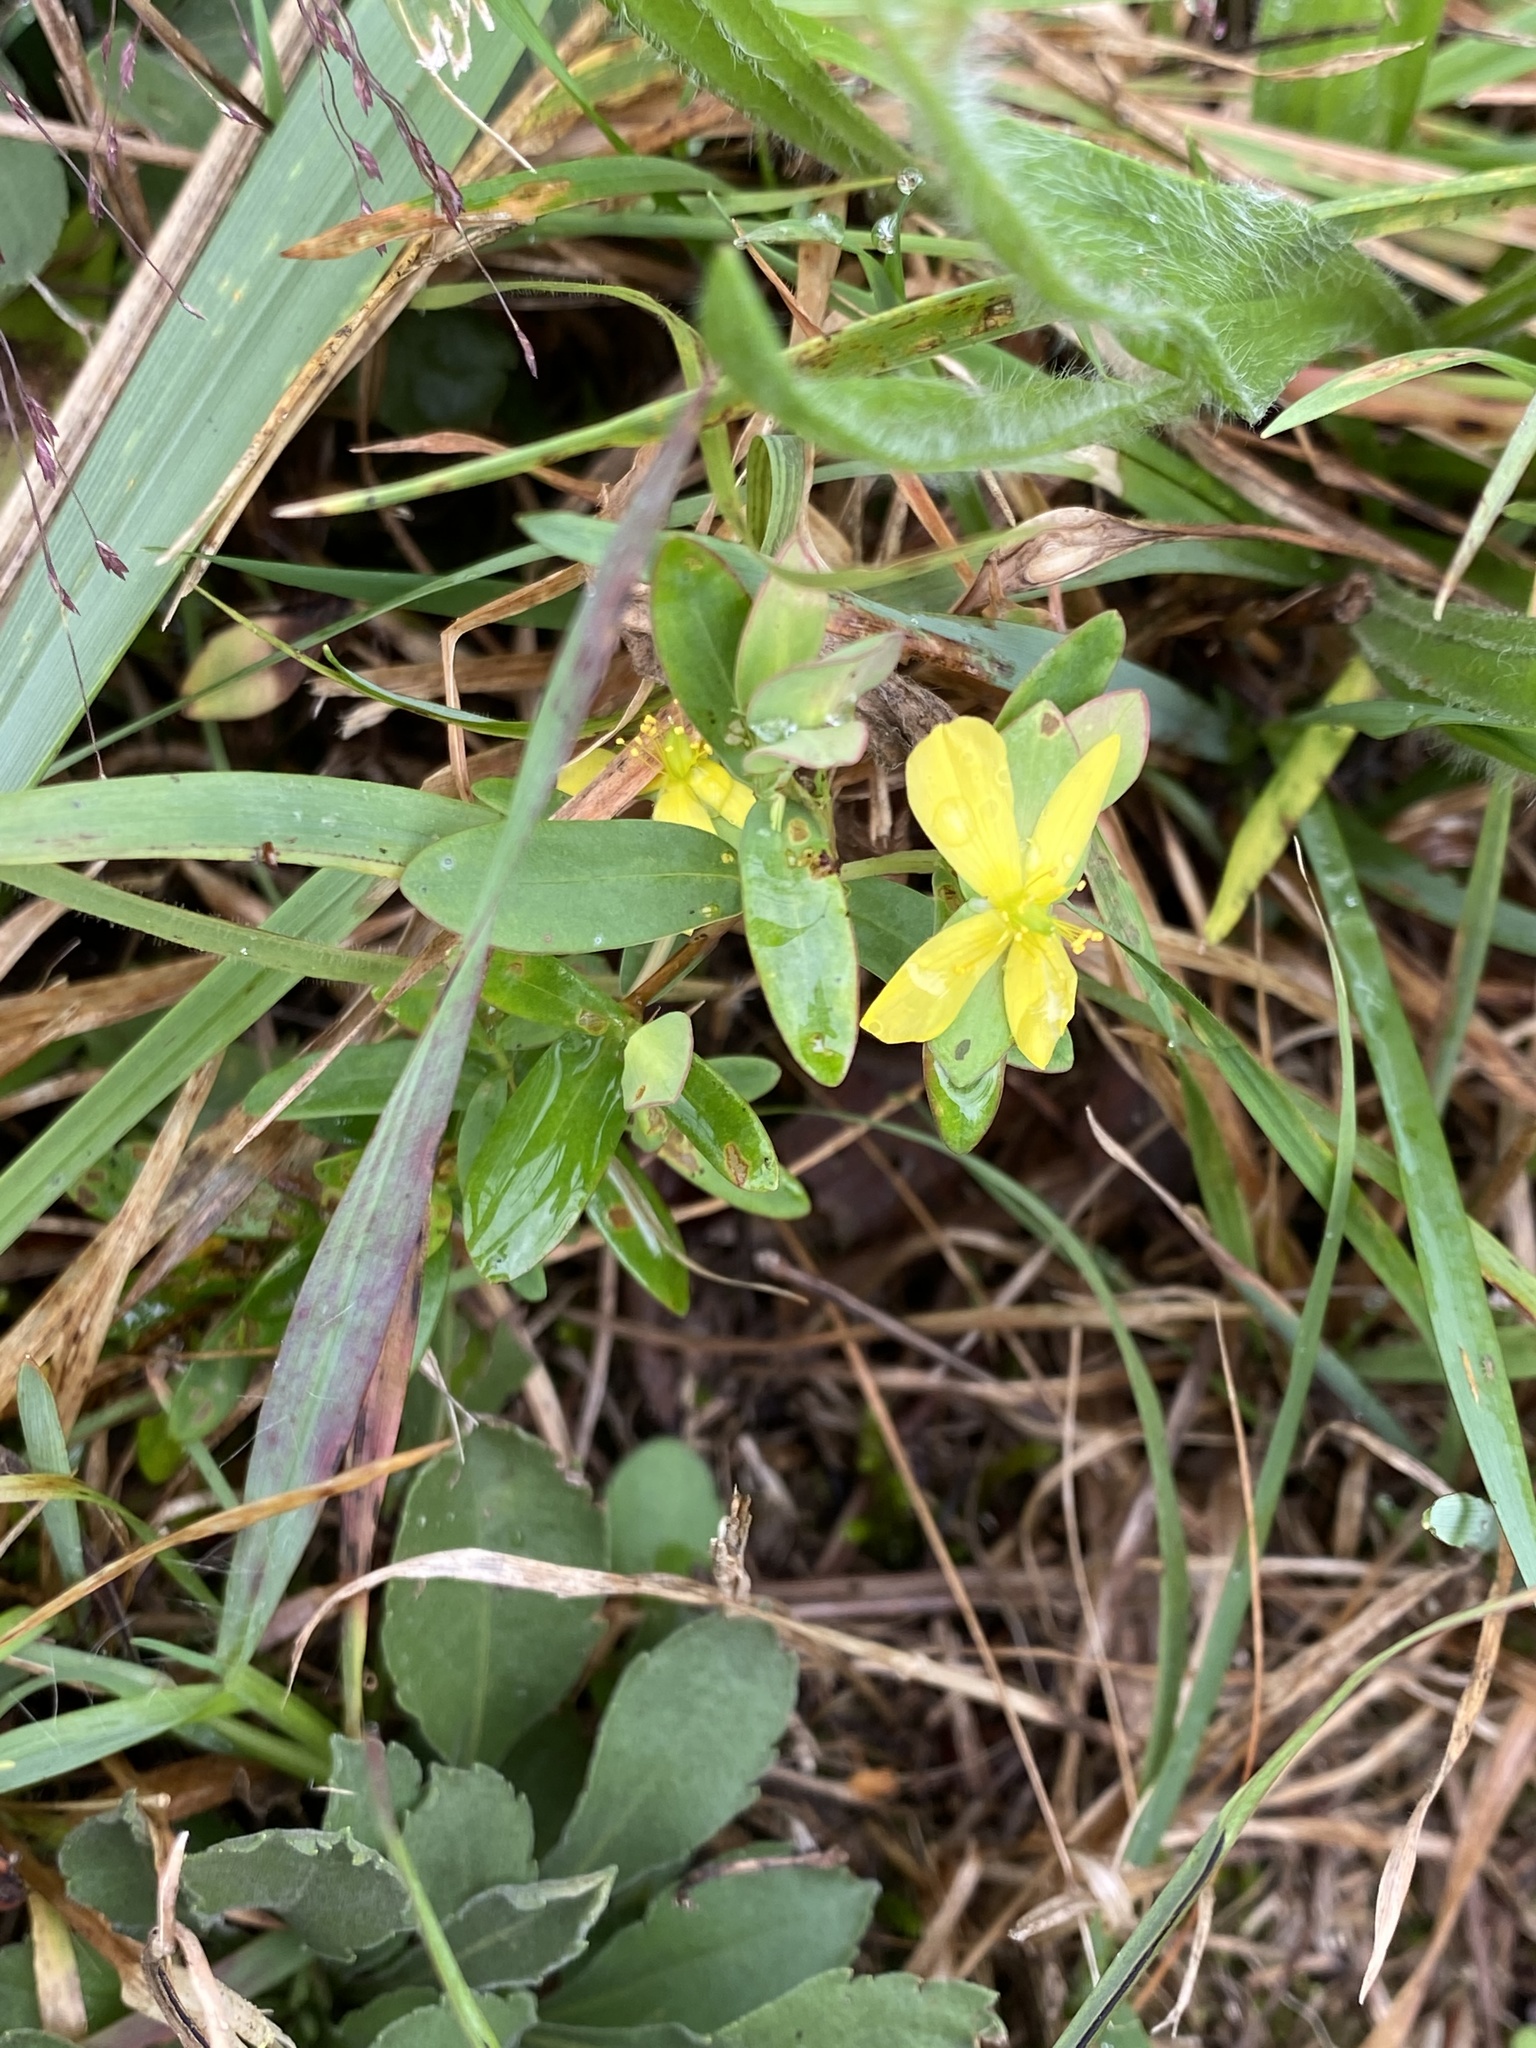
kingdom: Plantae
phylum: Tracheophyta
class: Magnoliopsida
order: Malpighiales
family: Hypericaceae
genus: Hypericum
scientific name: Hypericum hypericoides
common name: St. andrew's cross
